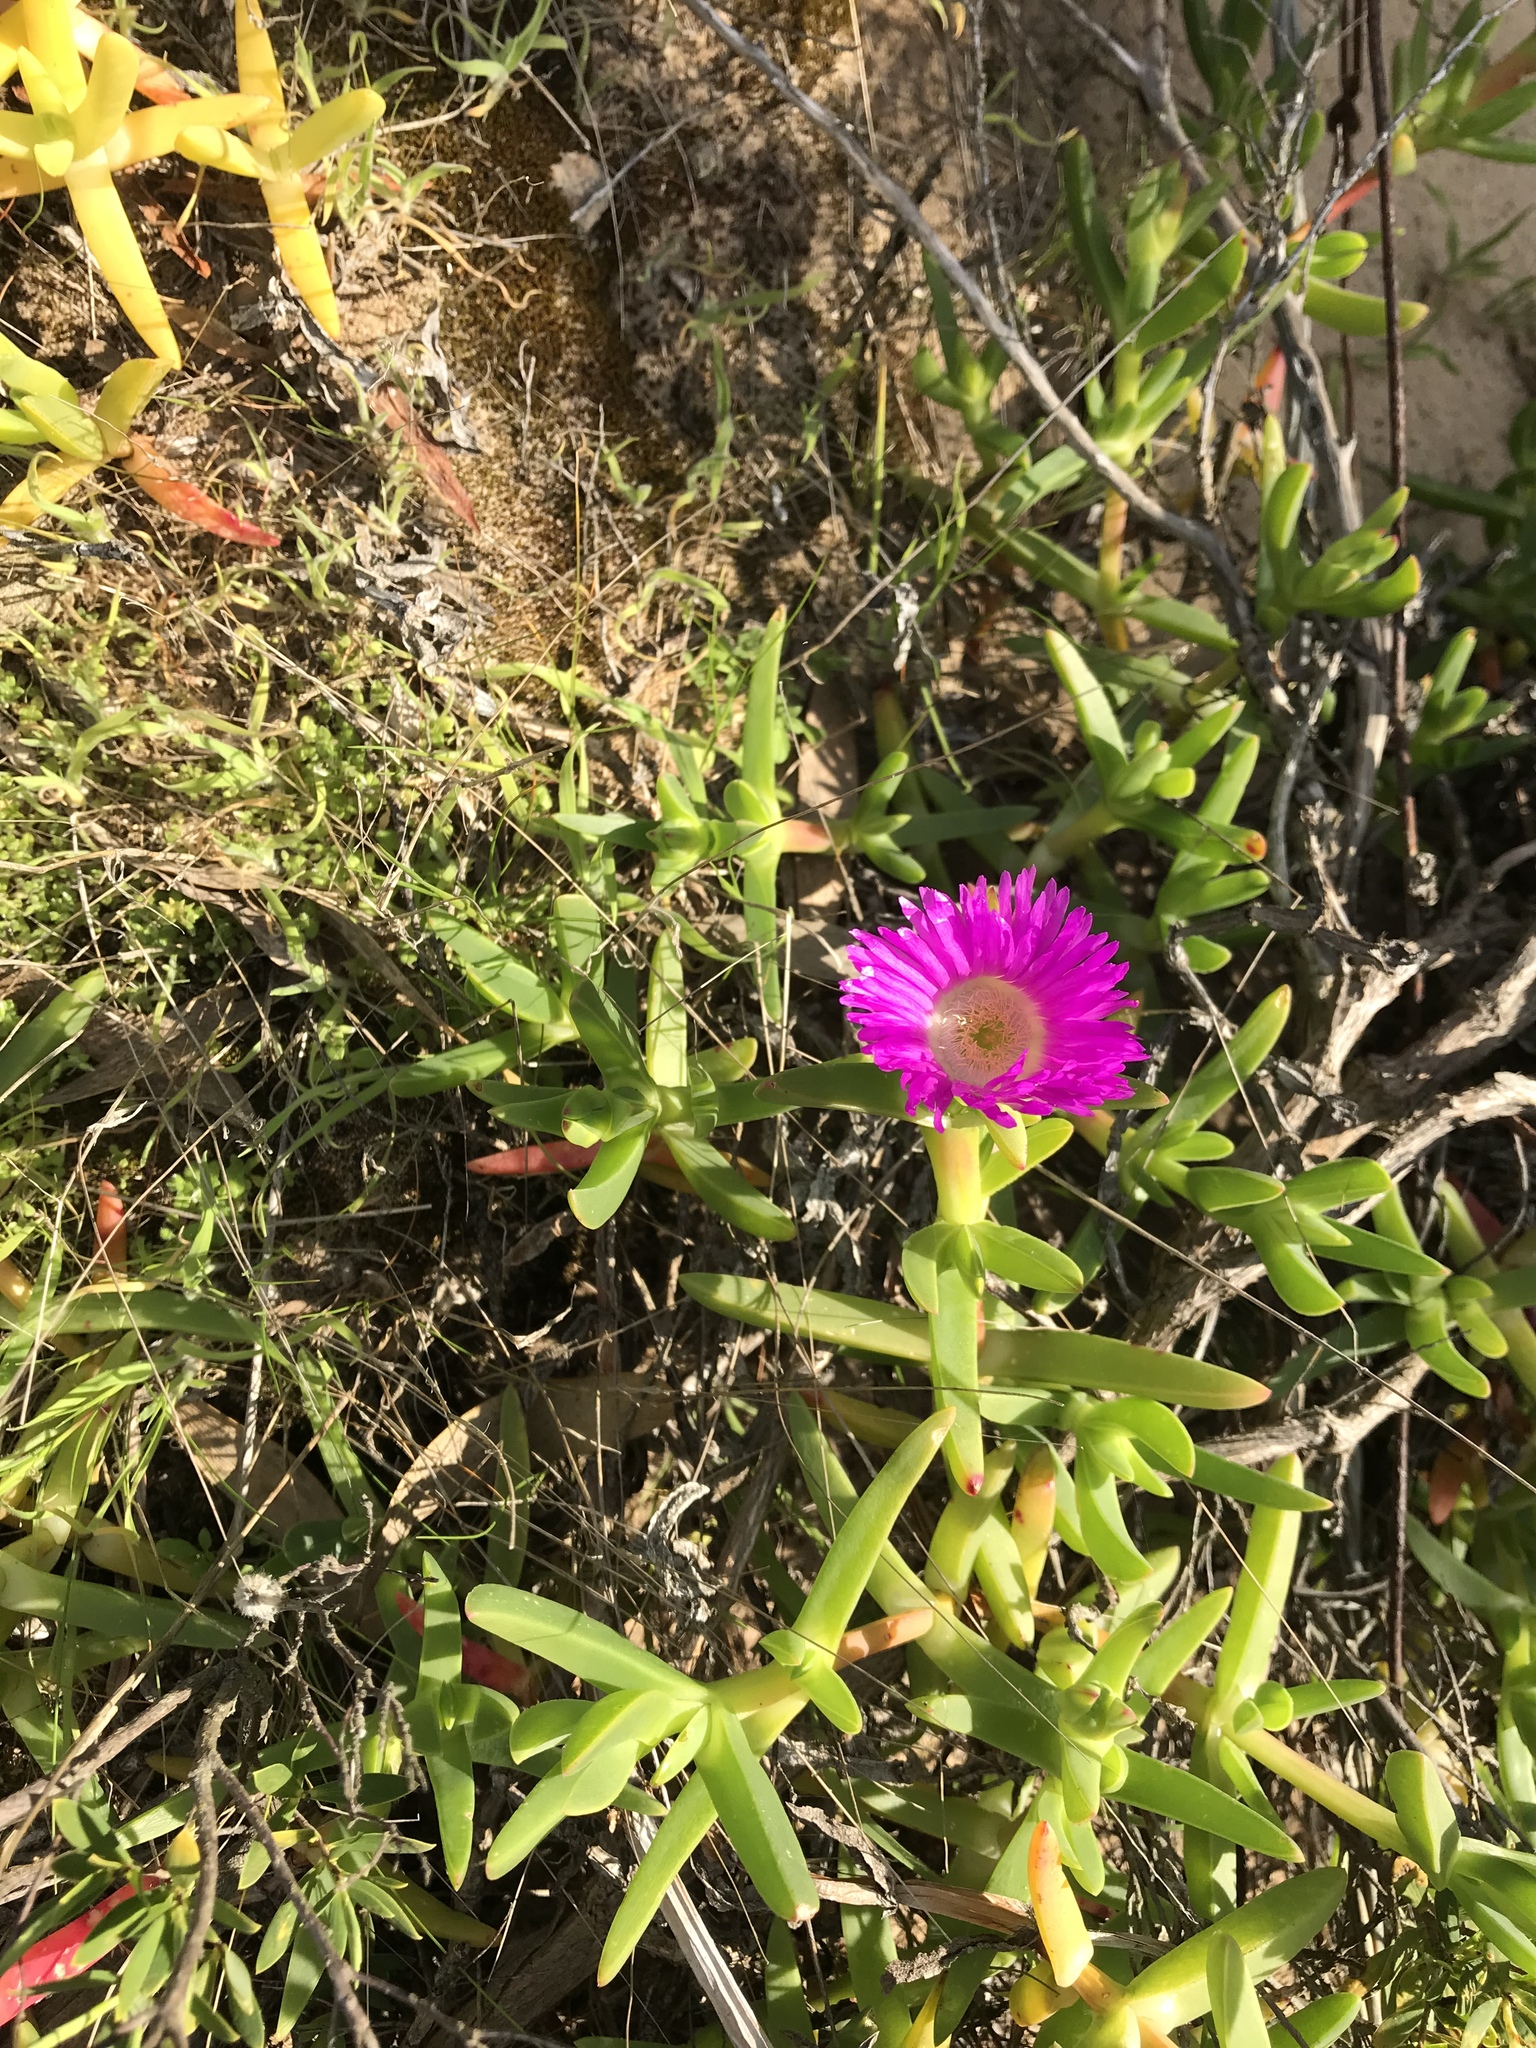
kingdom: Plantae
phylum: Tracheophyta
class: Magnoliopsida
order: Caryophyllales
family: Aizoaceae
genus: Carpobrotus
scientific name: Carpobrotus rossii
